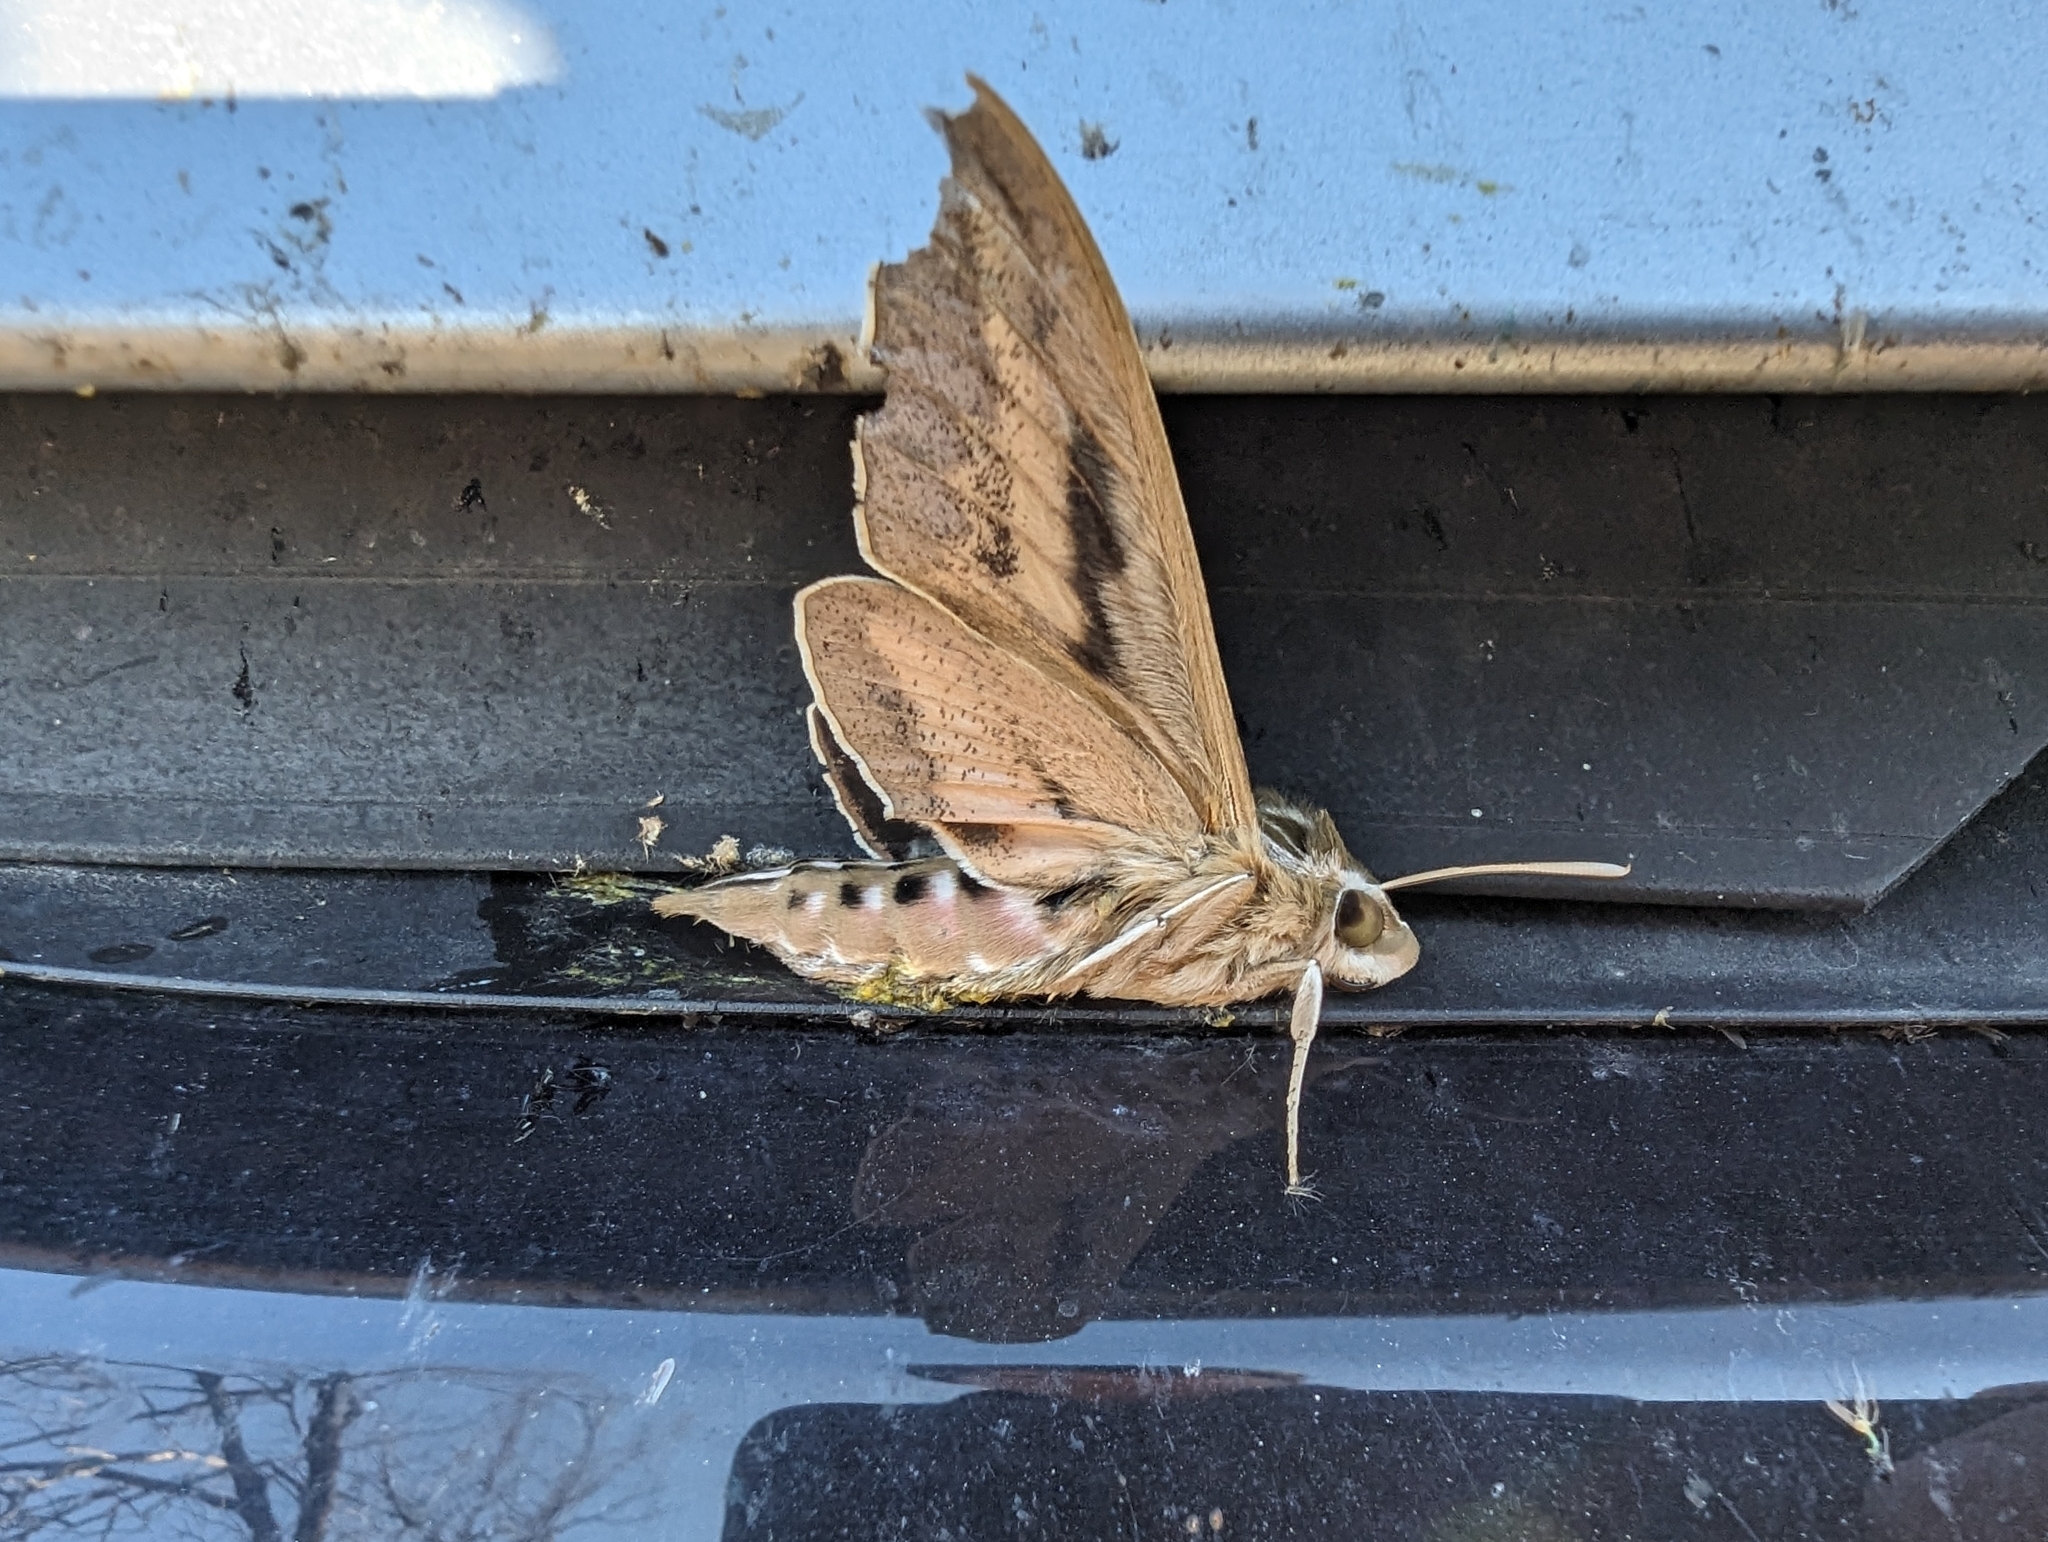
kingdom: Animalia
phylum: Arthropoda
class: Insecta
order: Lepidoptera
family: Sphingidae
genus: Hyles
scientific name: Hyles lineata
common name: White-lined sphinx
